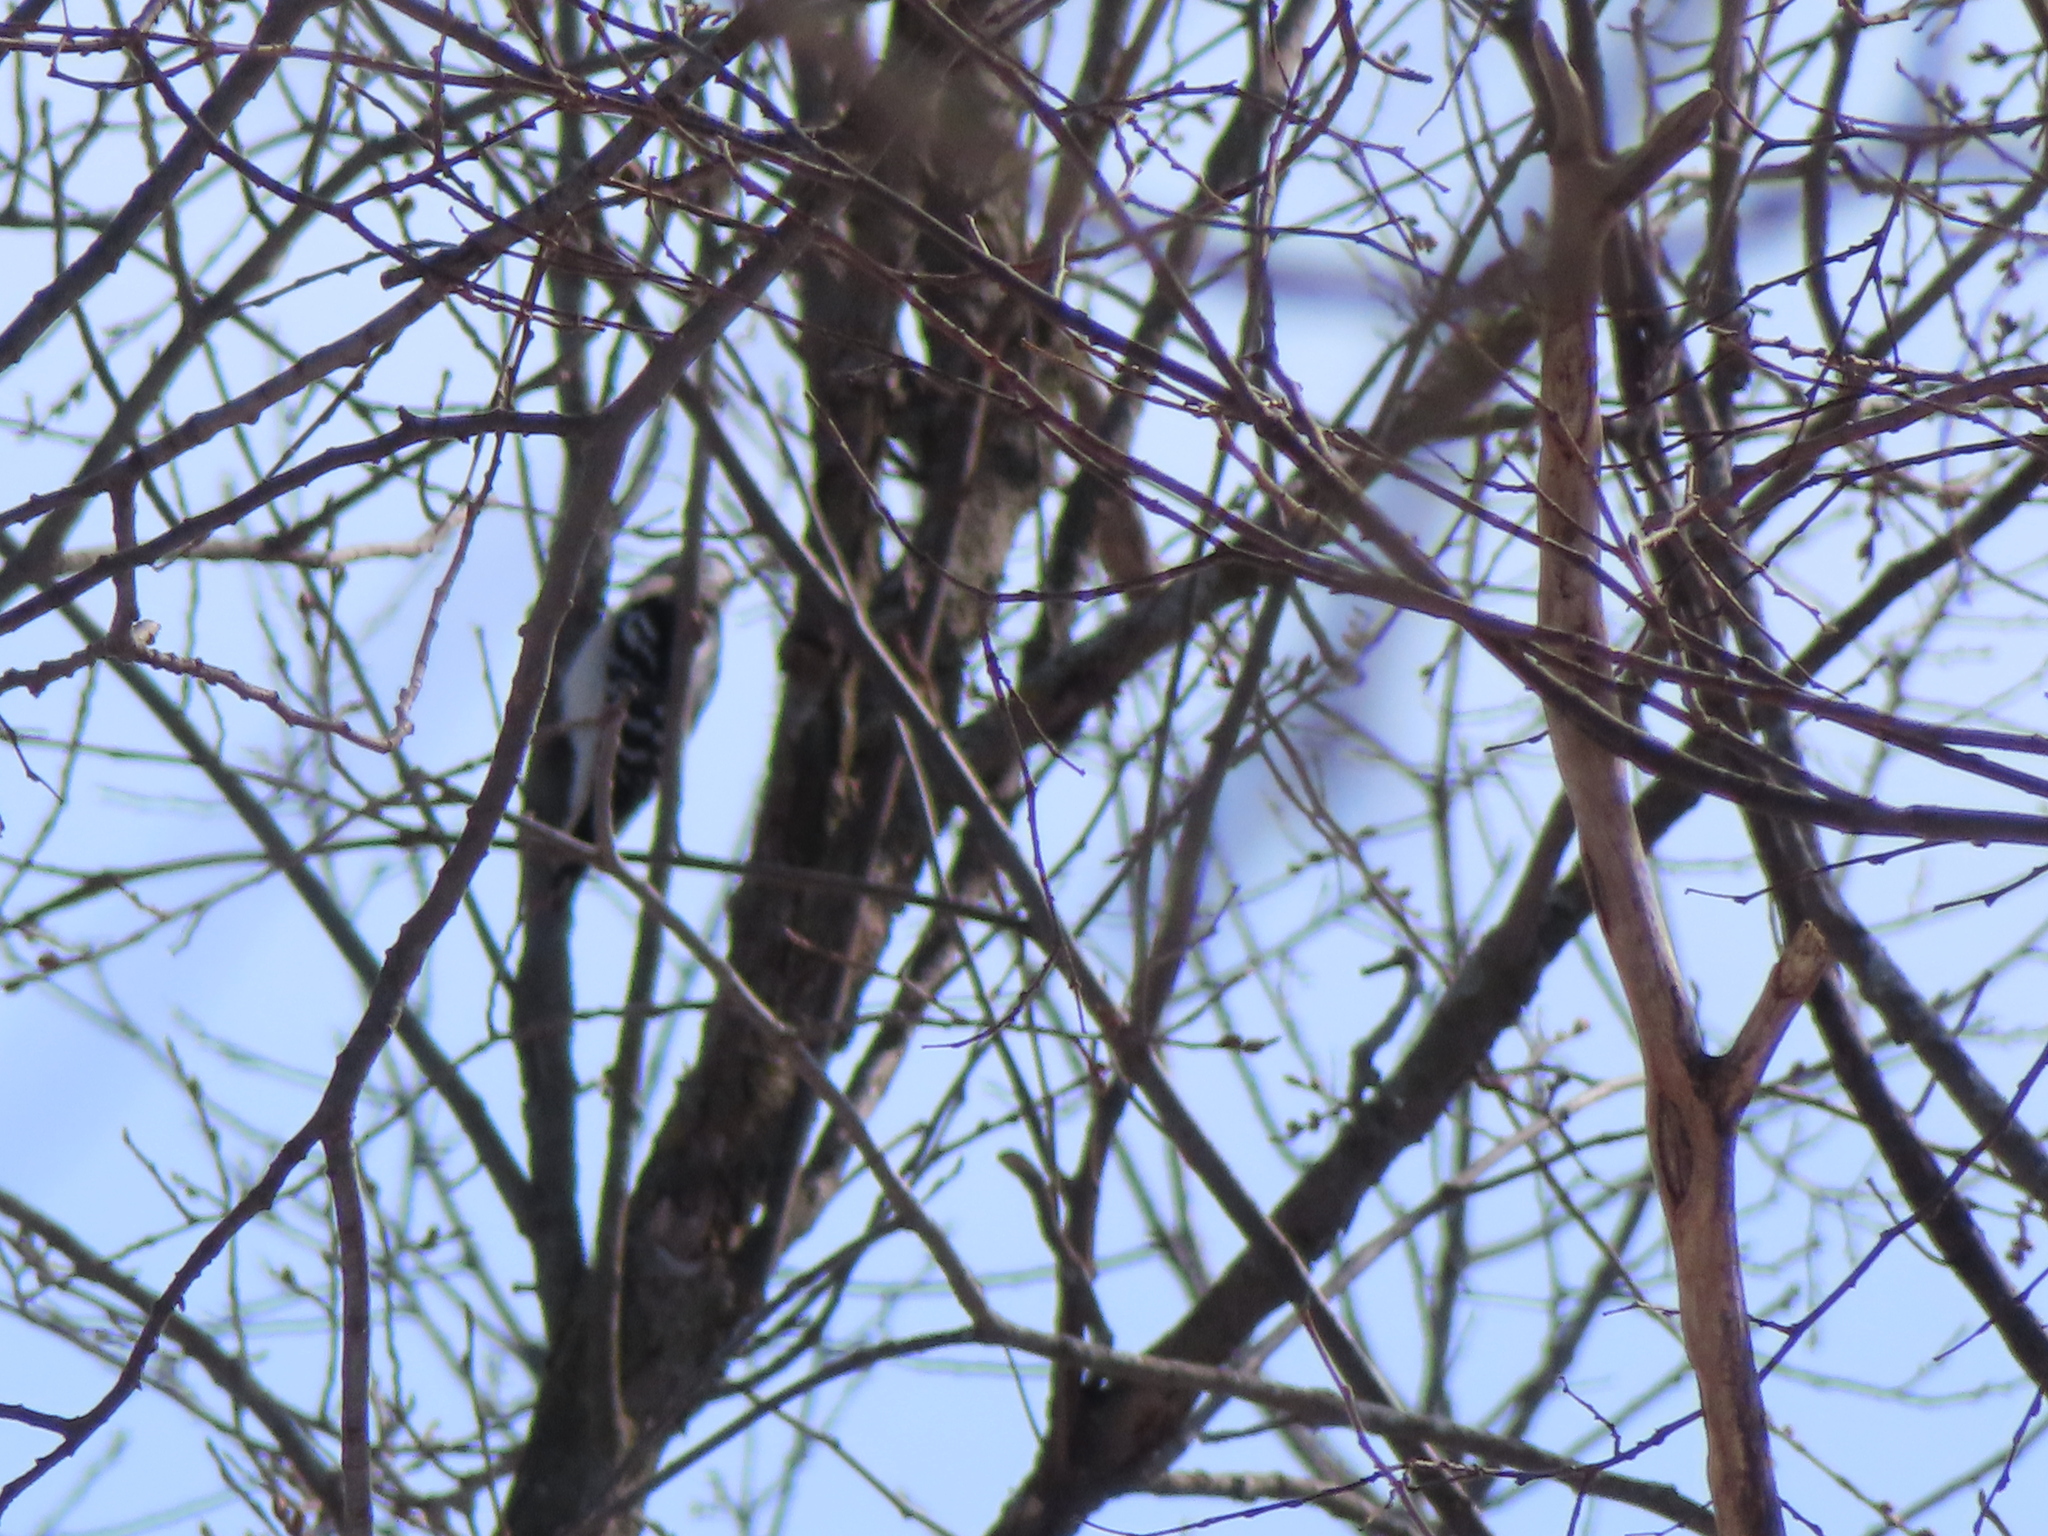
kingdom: Animalia
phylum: Chordata
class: Aves
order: Piciformes
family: Picidae
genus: Dryobates
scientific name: Dryobates pubescens
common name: Downy woodpecker
